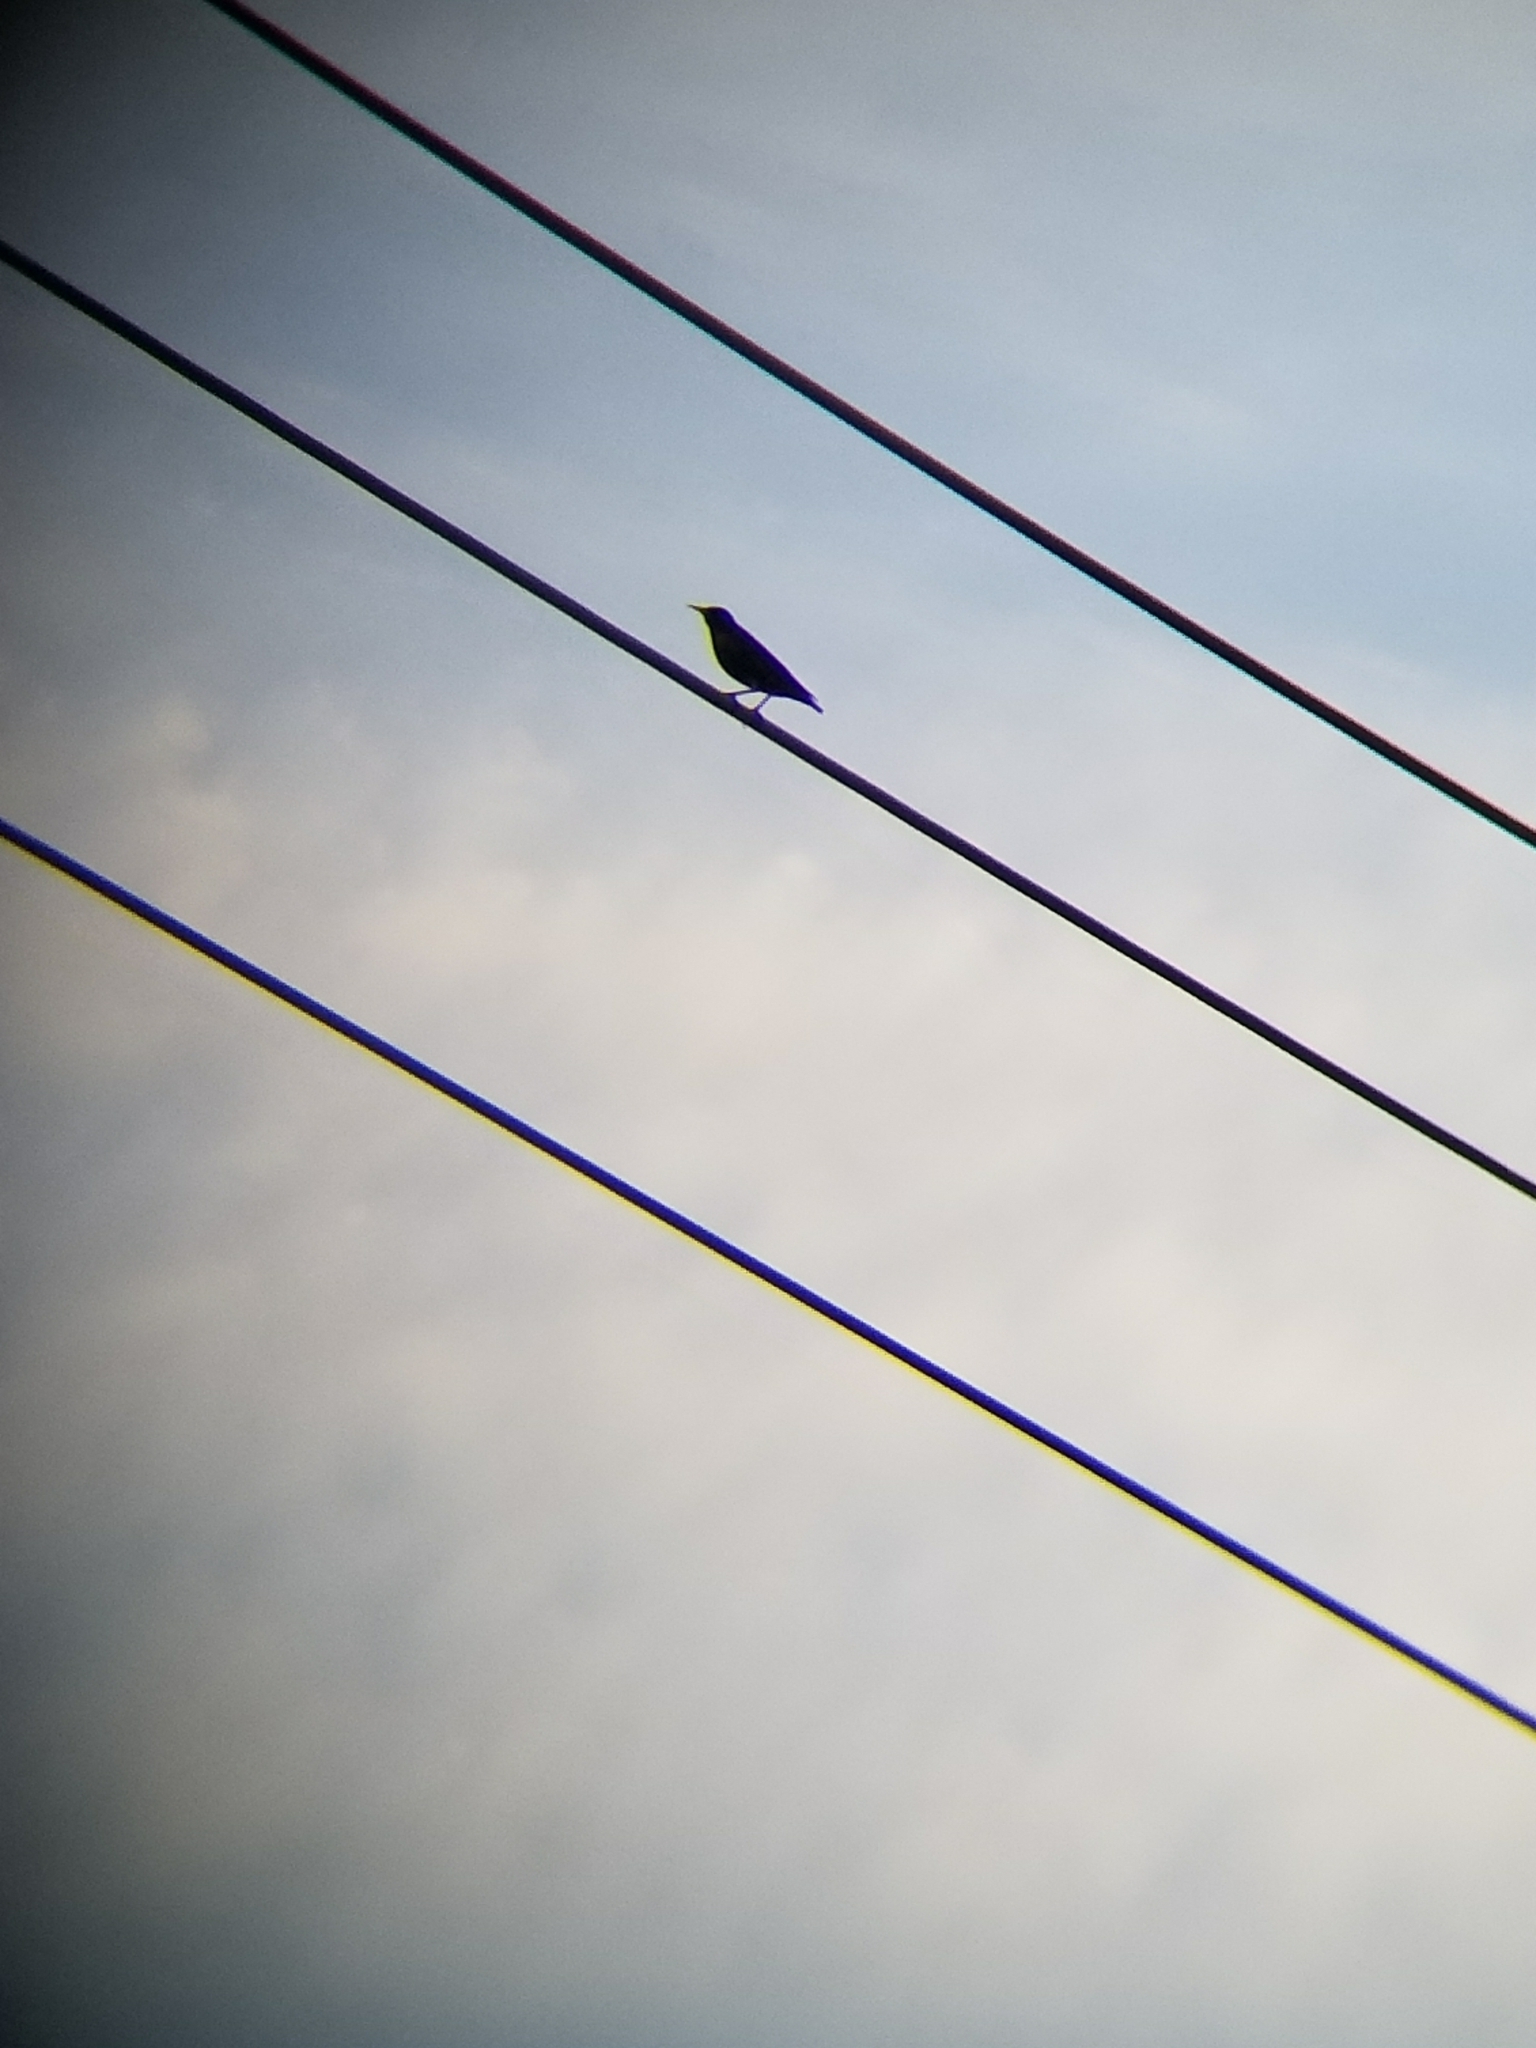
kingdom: Animalia
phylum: Chordata
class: Aves
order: Passeriformes
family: Sturnidae
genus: Sturnus
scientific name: Sturnus vulgaris
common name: Common starling
